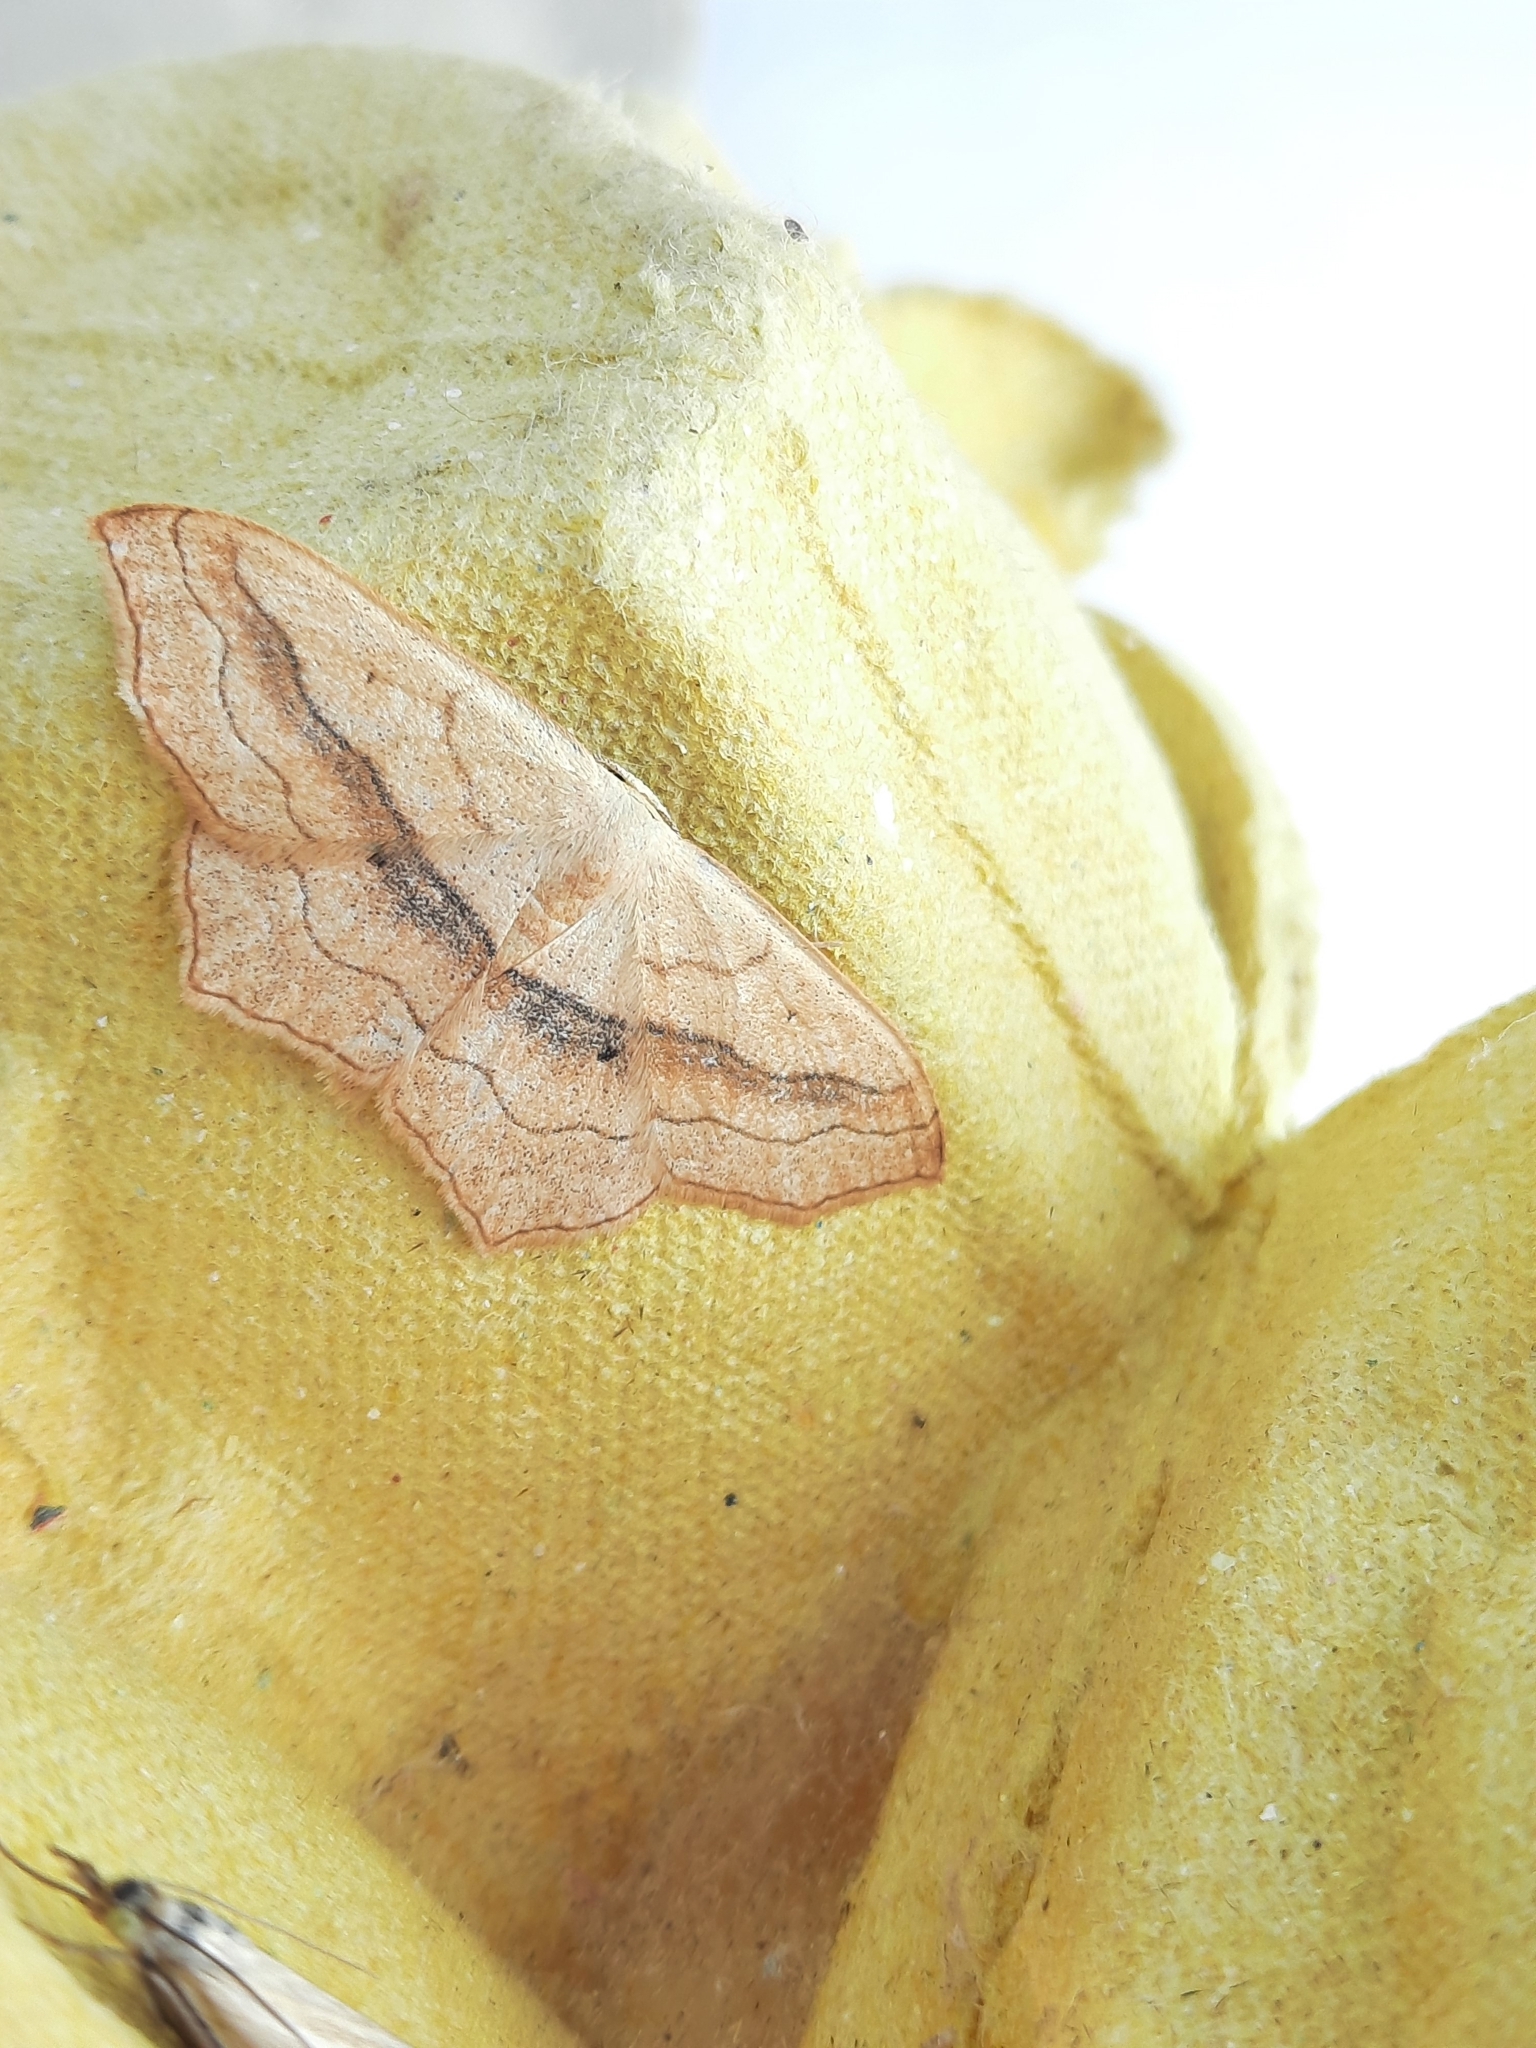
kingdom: Animalia
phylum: Arthropoda
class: Insecta
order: Lepidoptera
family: Geometridae
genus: Scopula
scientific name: Scopula imitaria
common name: Small blood-vein
